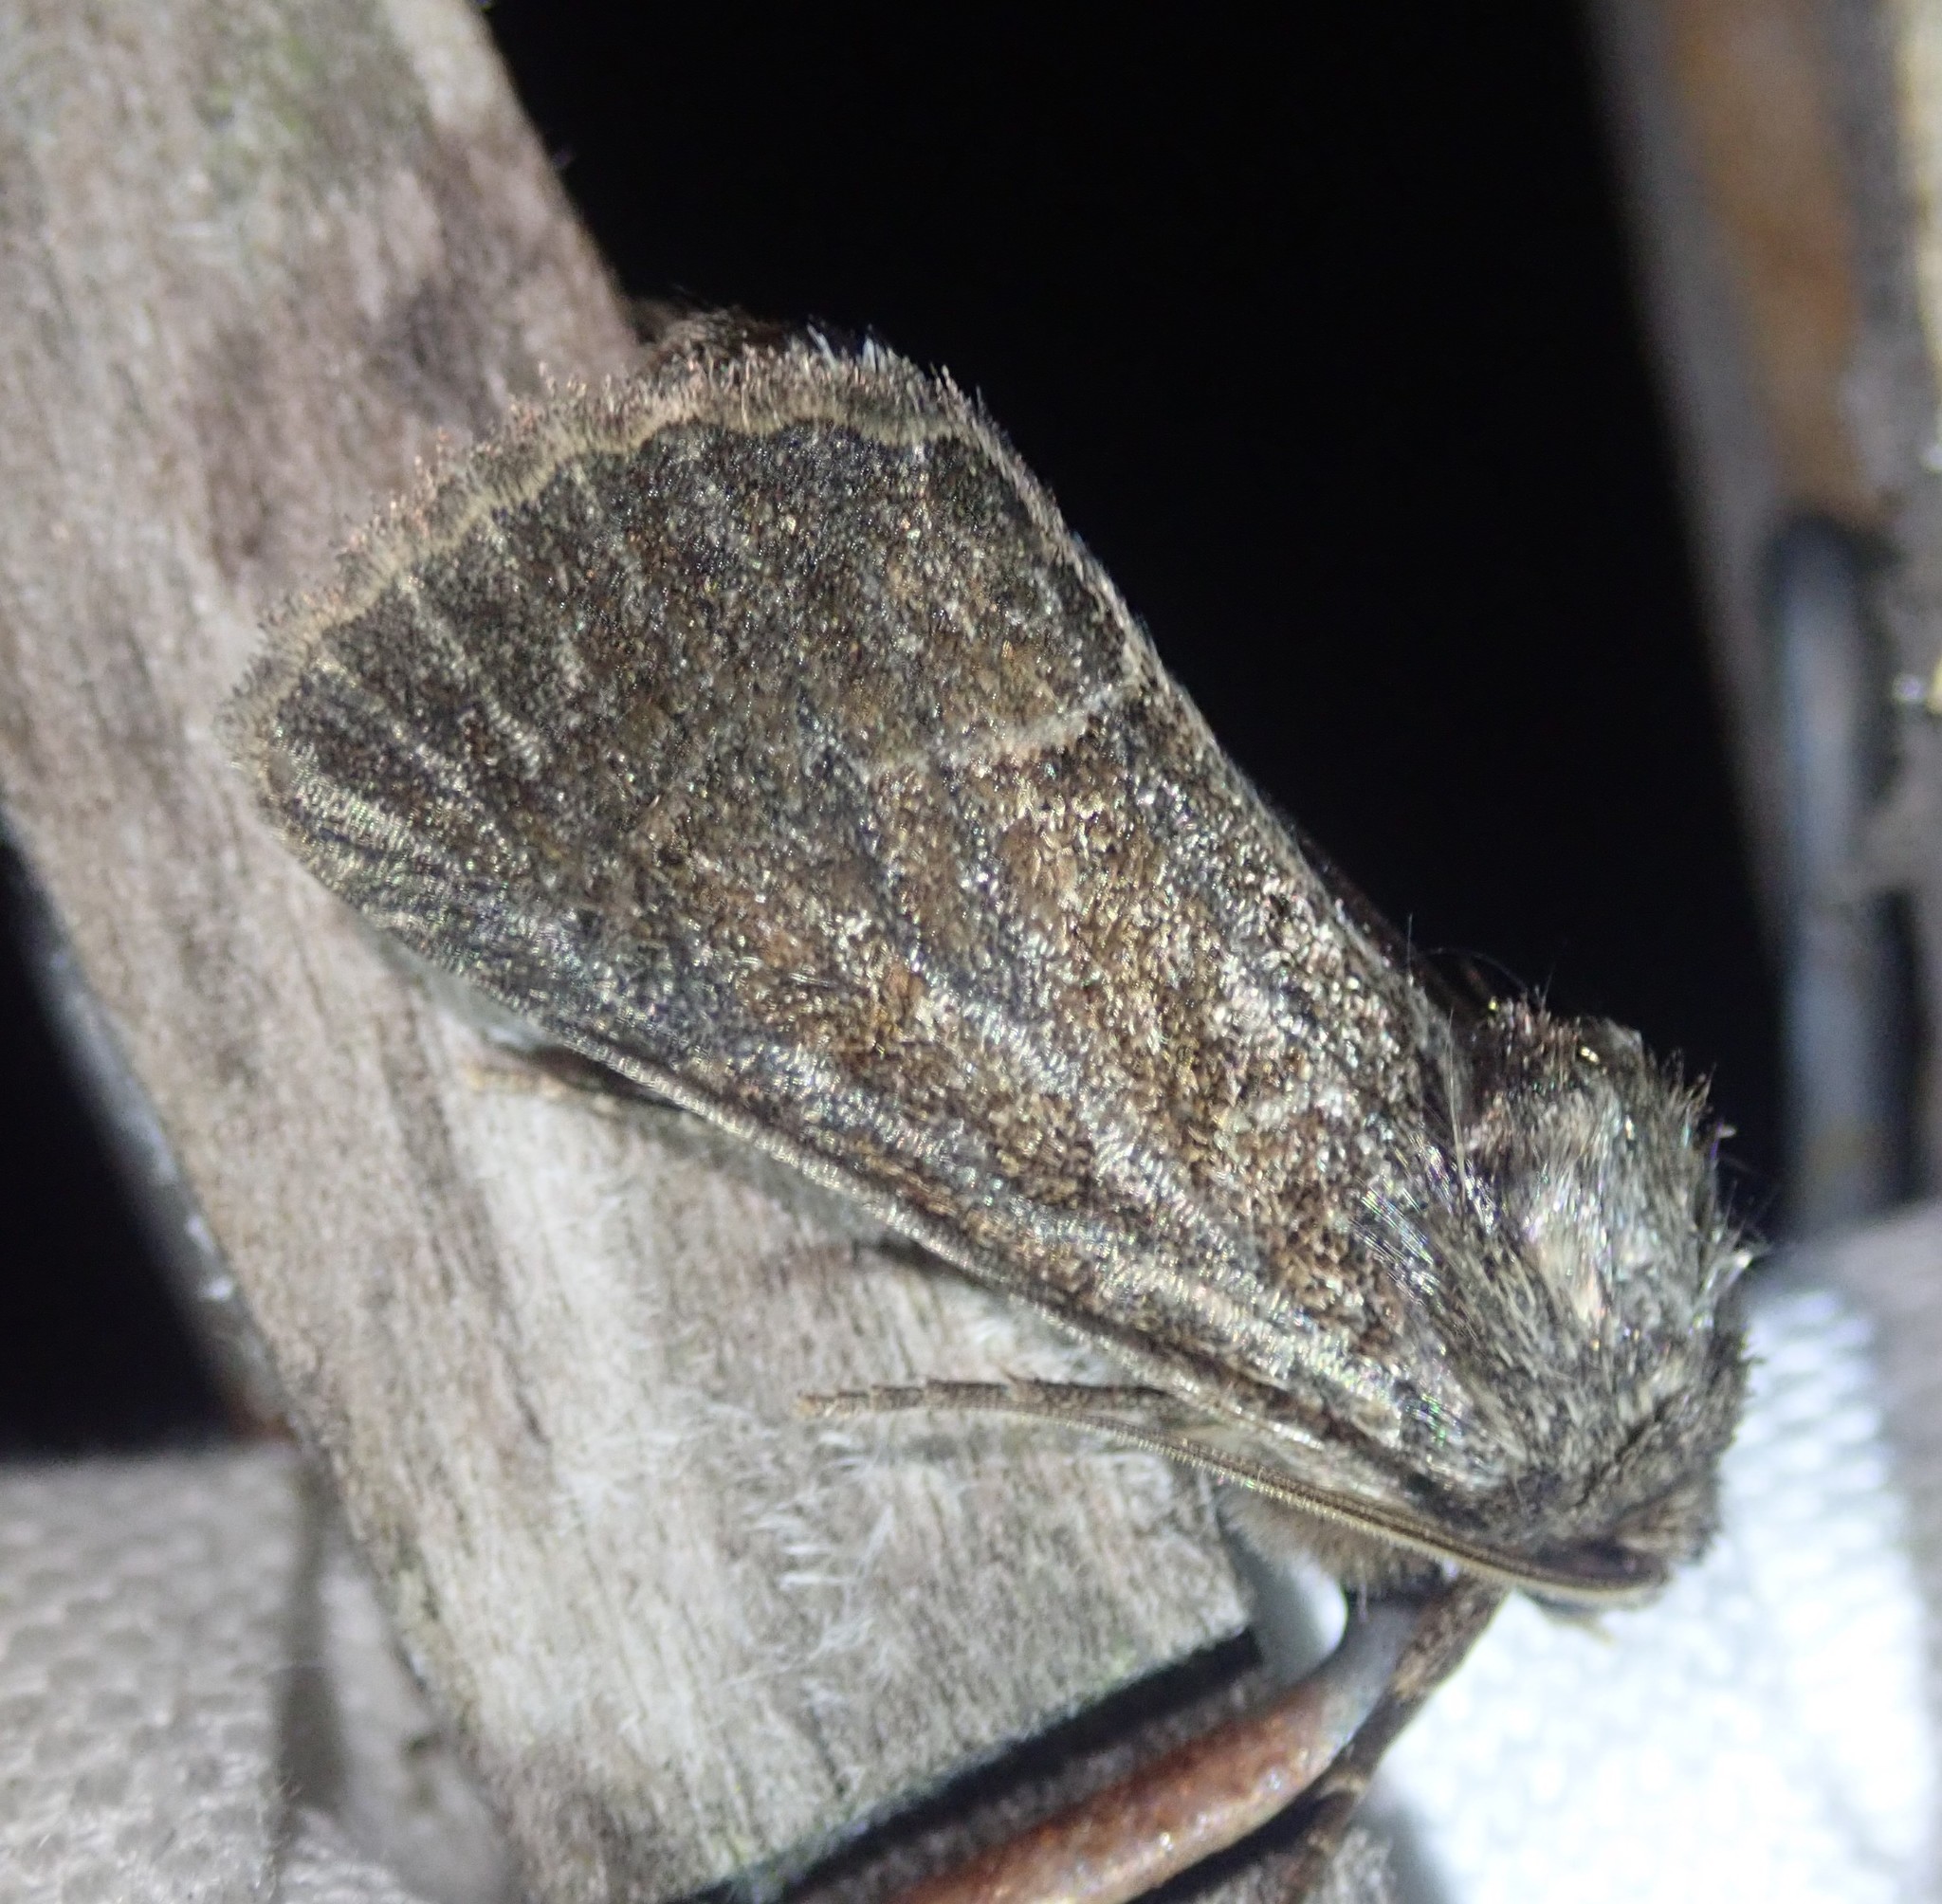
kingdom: Animalia
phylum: Arthropoda
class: Insecta
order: Lepidoptera
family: Noctuidae
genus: Thalpophila
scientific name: Thalpophila matura
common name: Straw underwing
